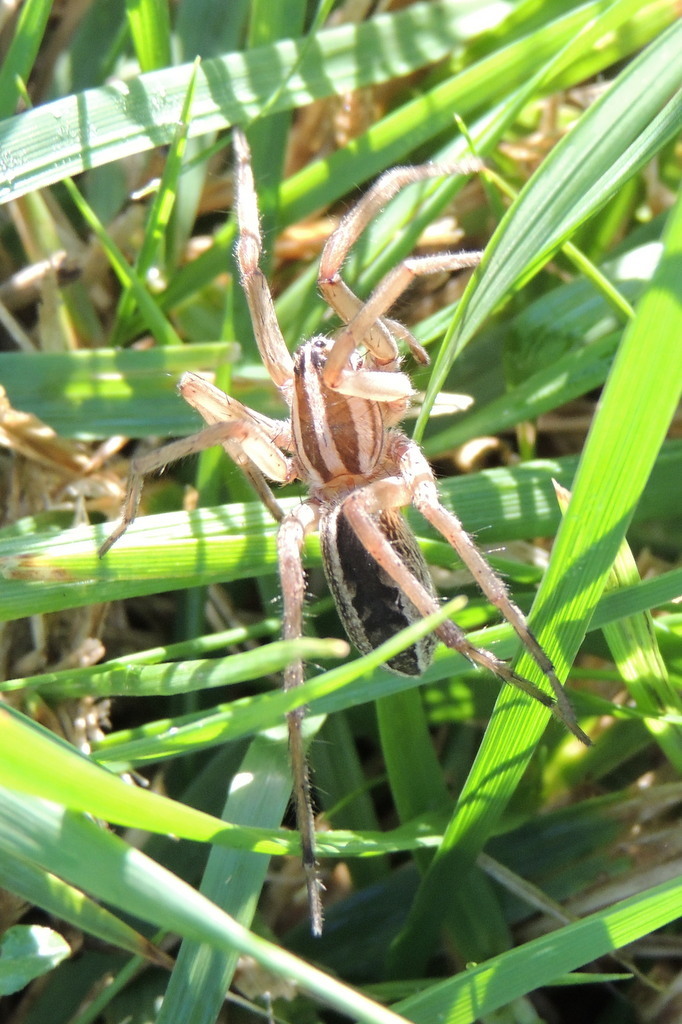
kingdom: Animalia
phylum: Arthropoda
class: Arachnida
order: Araneae
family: Lycosidae
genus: Rabidosa
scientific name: Rabidosa rabida
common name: Rabid wolf spider
